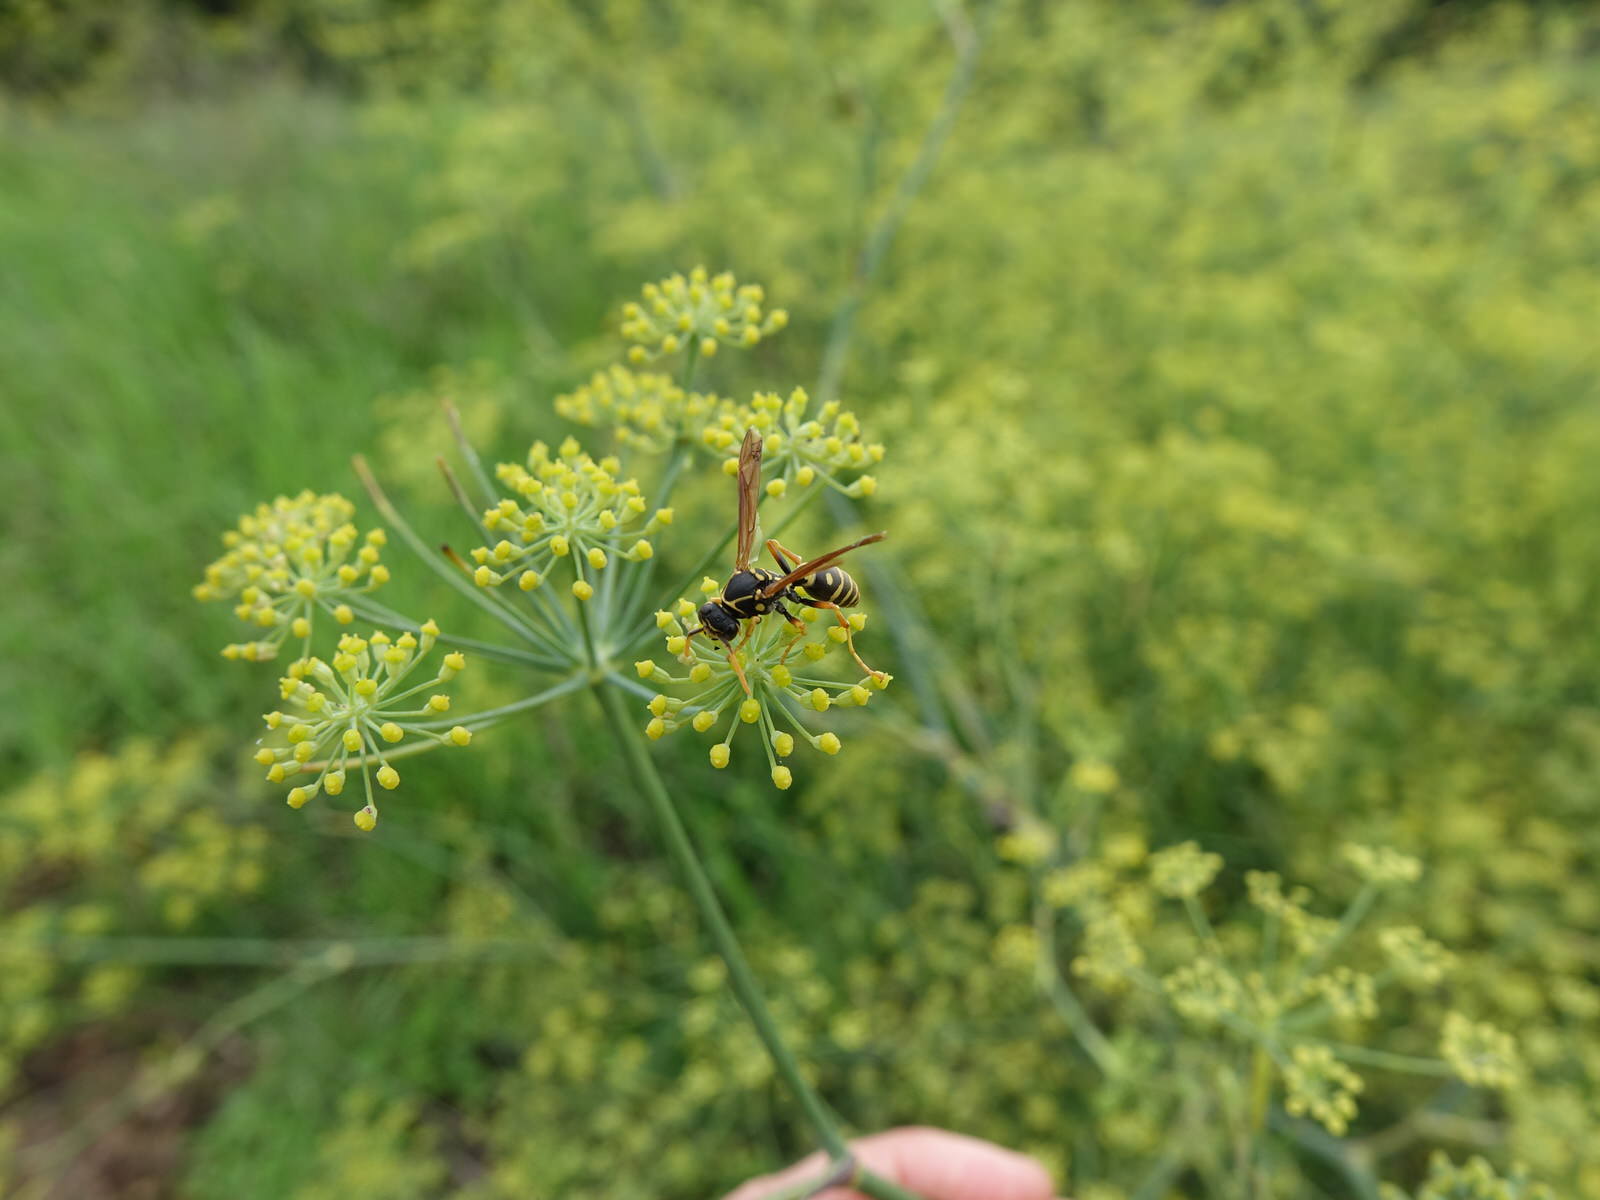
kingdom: Animalia
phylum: Arthropoda
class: Insecta
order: Hymenoptera
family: Eumenidae
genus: Polistes
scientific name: Polistes chinensis
